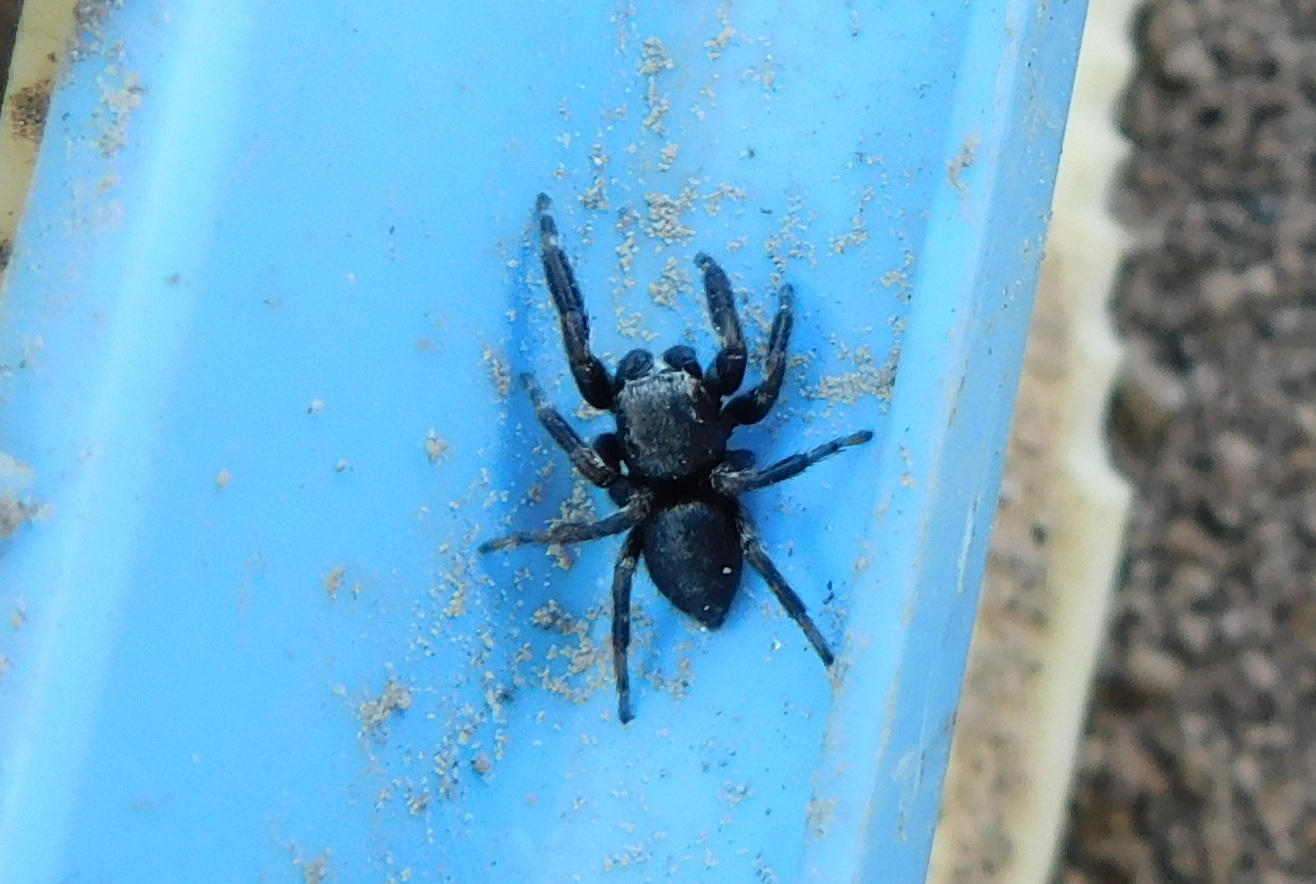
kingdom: Animalia
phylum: Arthropoda
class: Arachnida
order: Araneae
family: Salticidae
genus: Evarcha
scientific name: Evarcha arcuata
